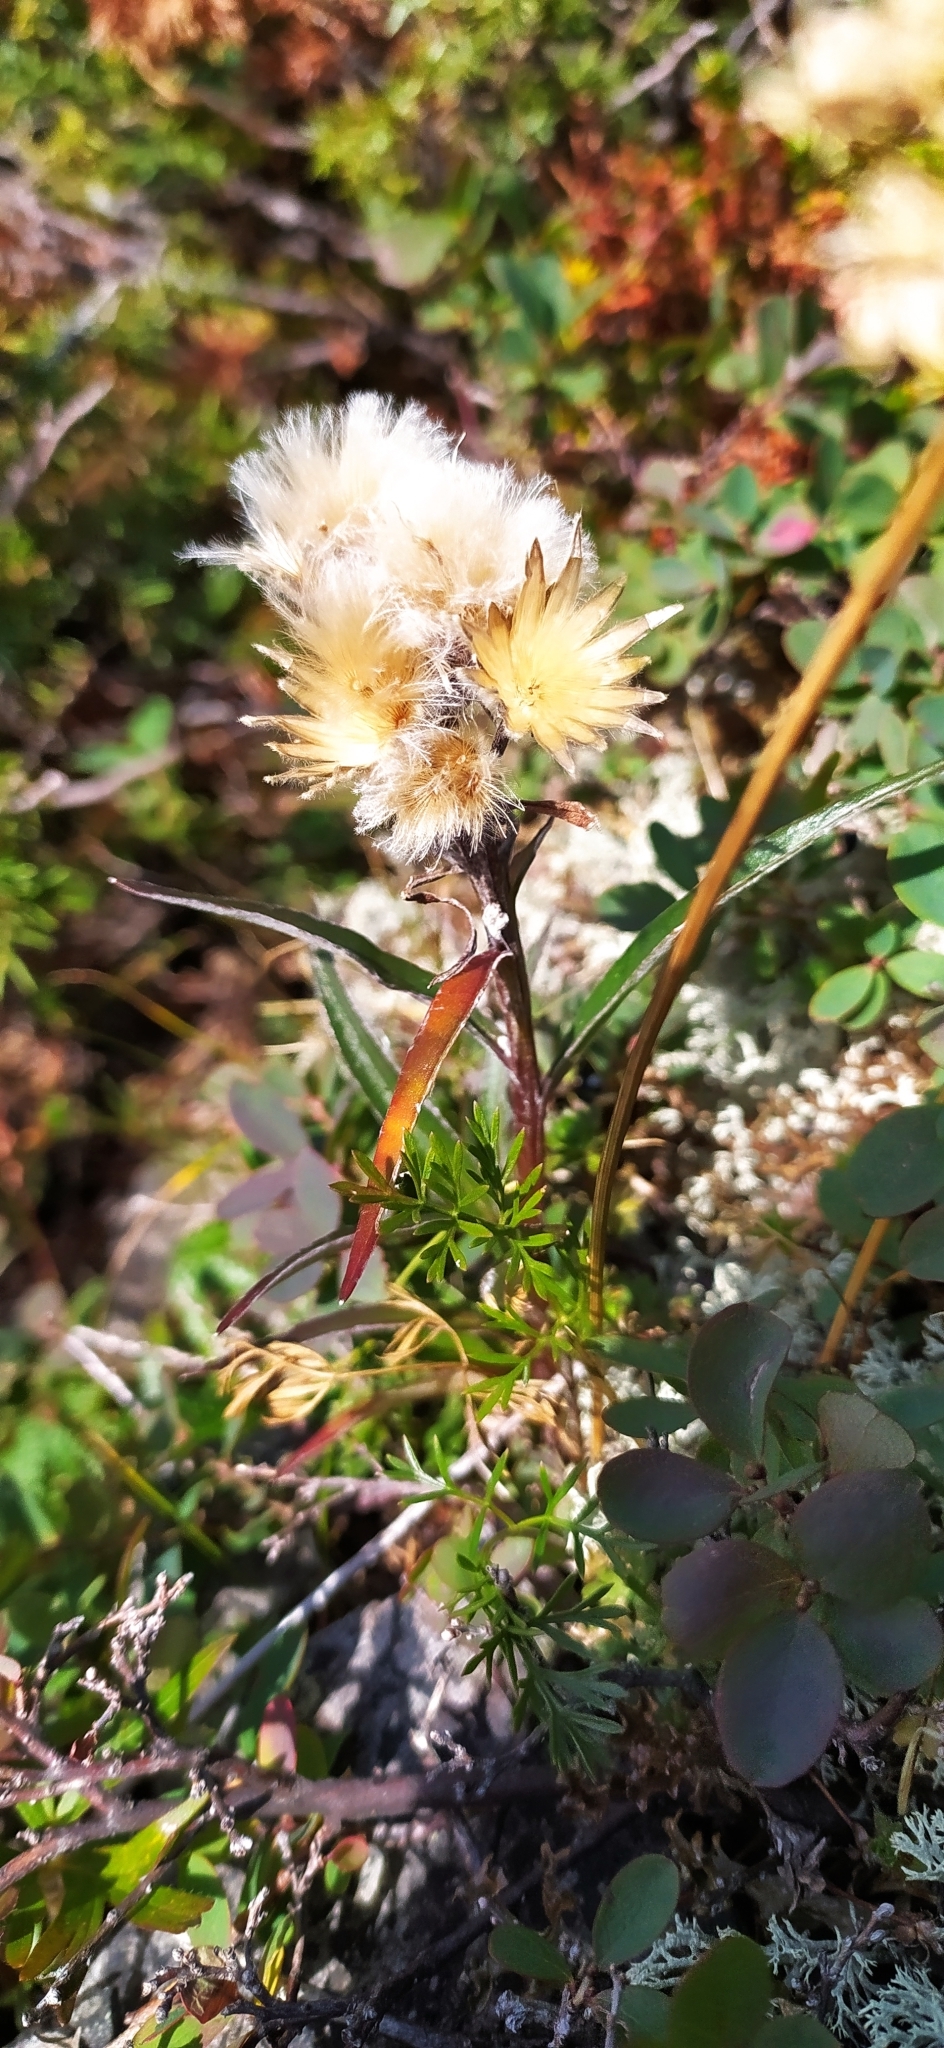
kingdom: Plantae
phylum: Tracheophyta
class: Magnoliopsida
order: Asterales
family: Asteraceae
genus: Saussurea
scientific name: Saussurea alpina
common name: Alpine saw-wort
